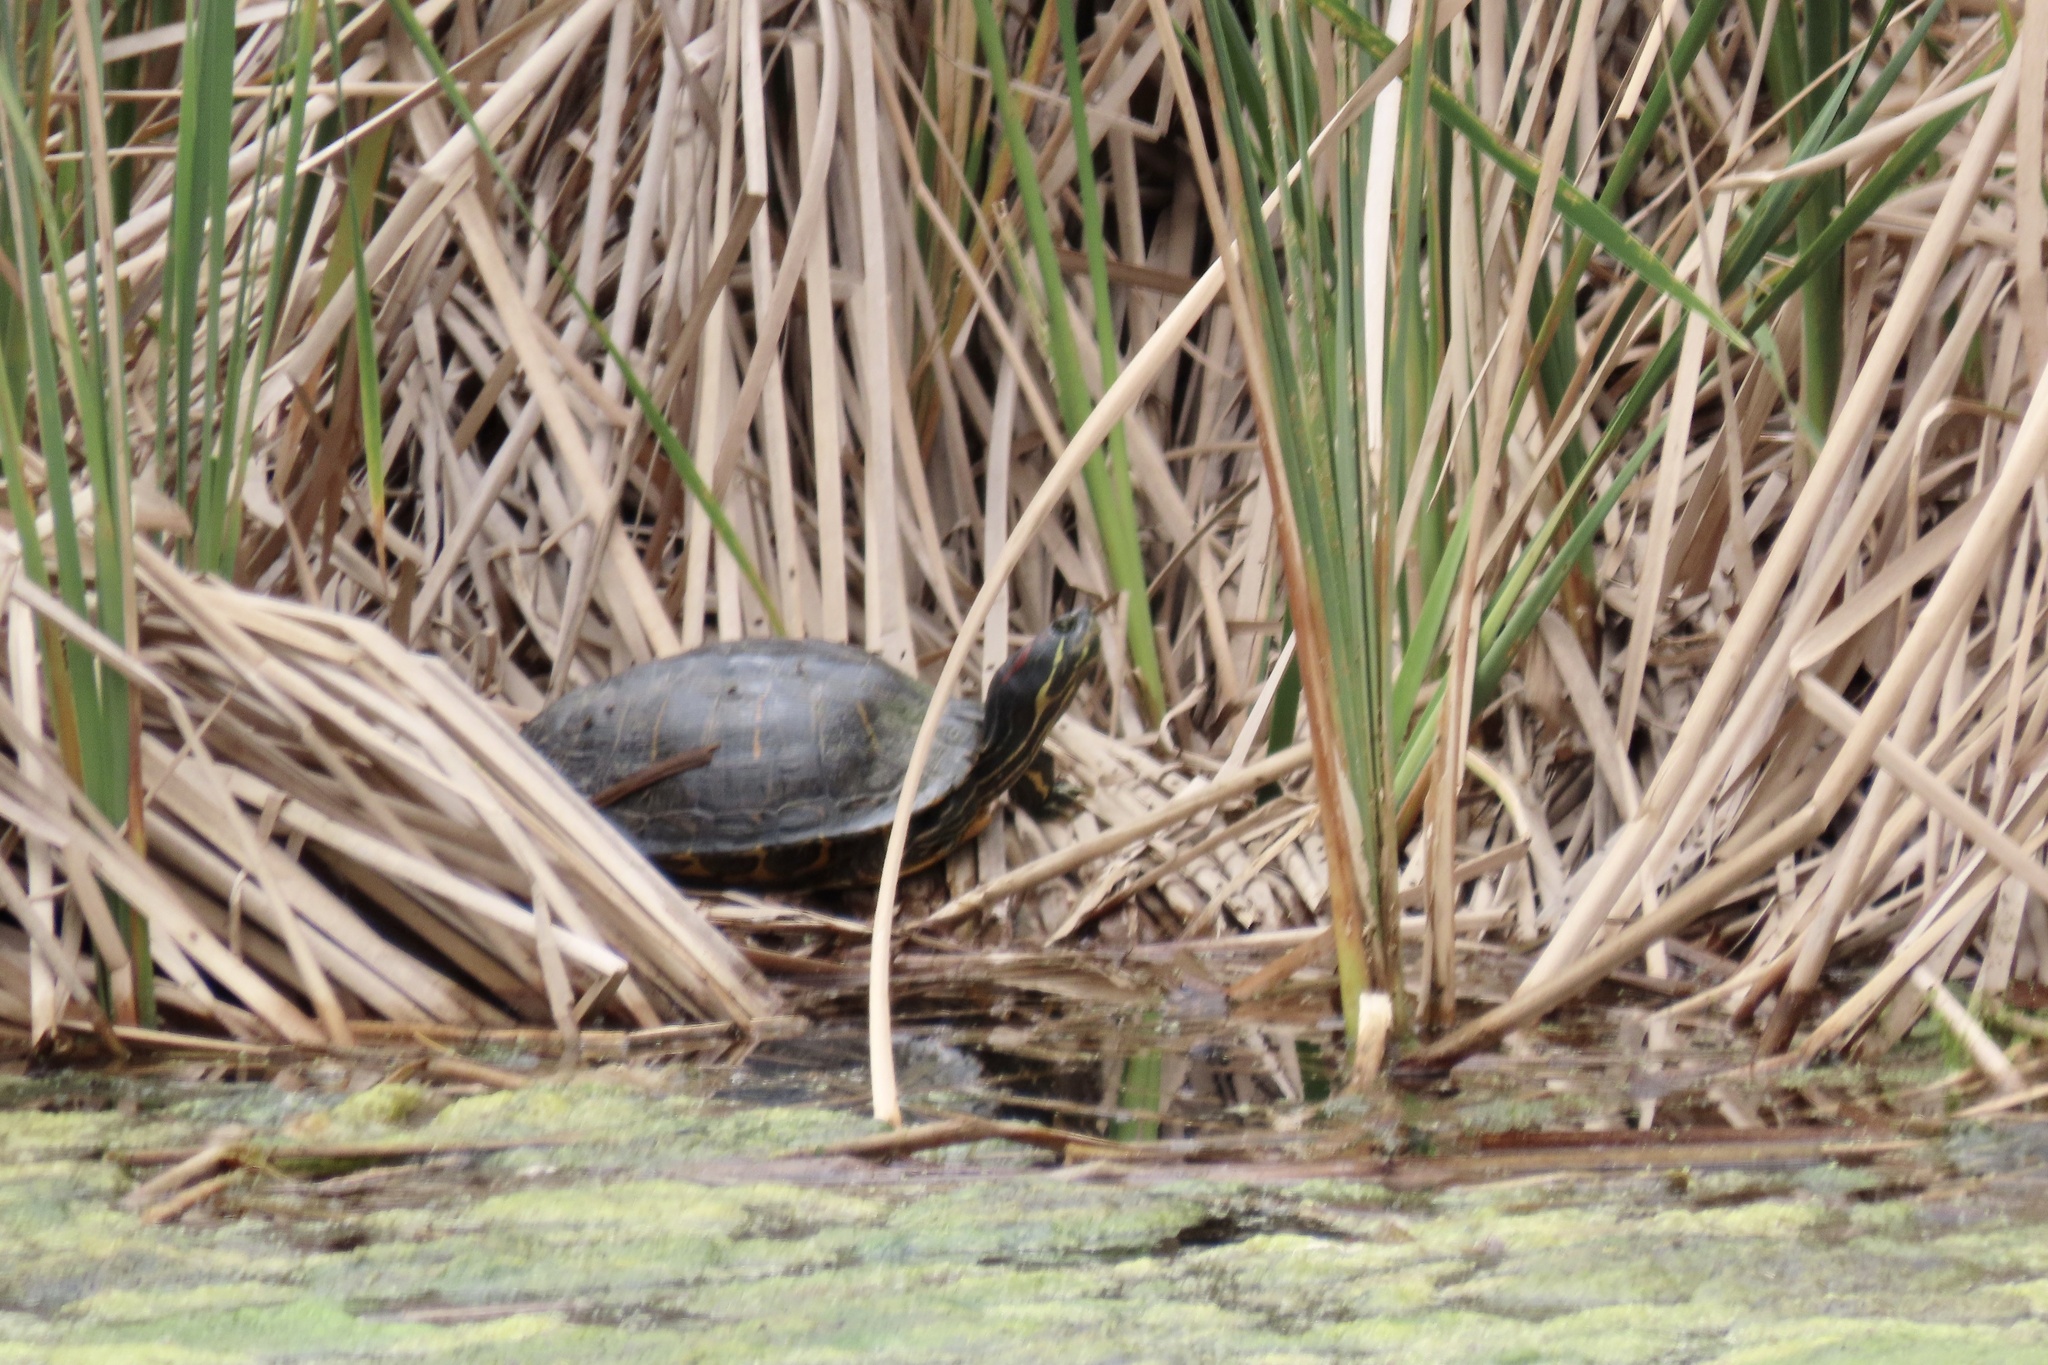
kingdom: Animalia
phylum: Chordata
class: Testudines
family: Emydidae
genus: Trachemys
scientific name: Trachemys scripta
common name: Slider
